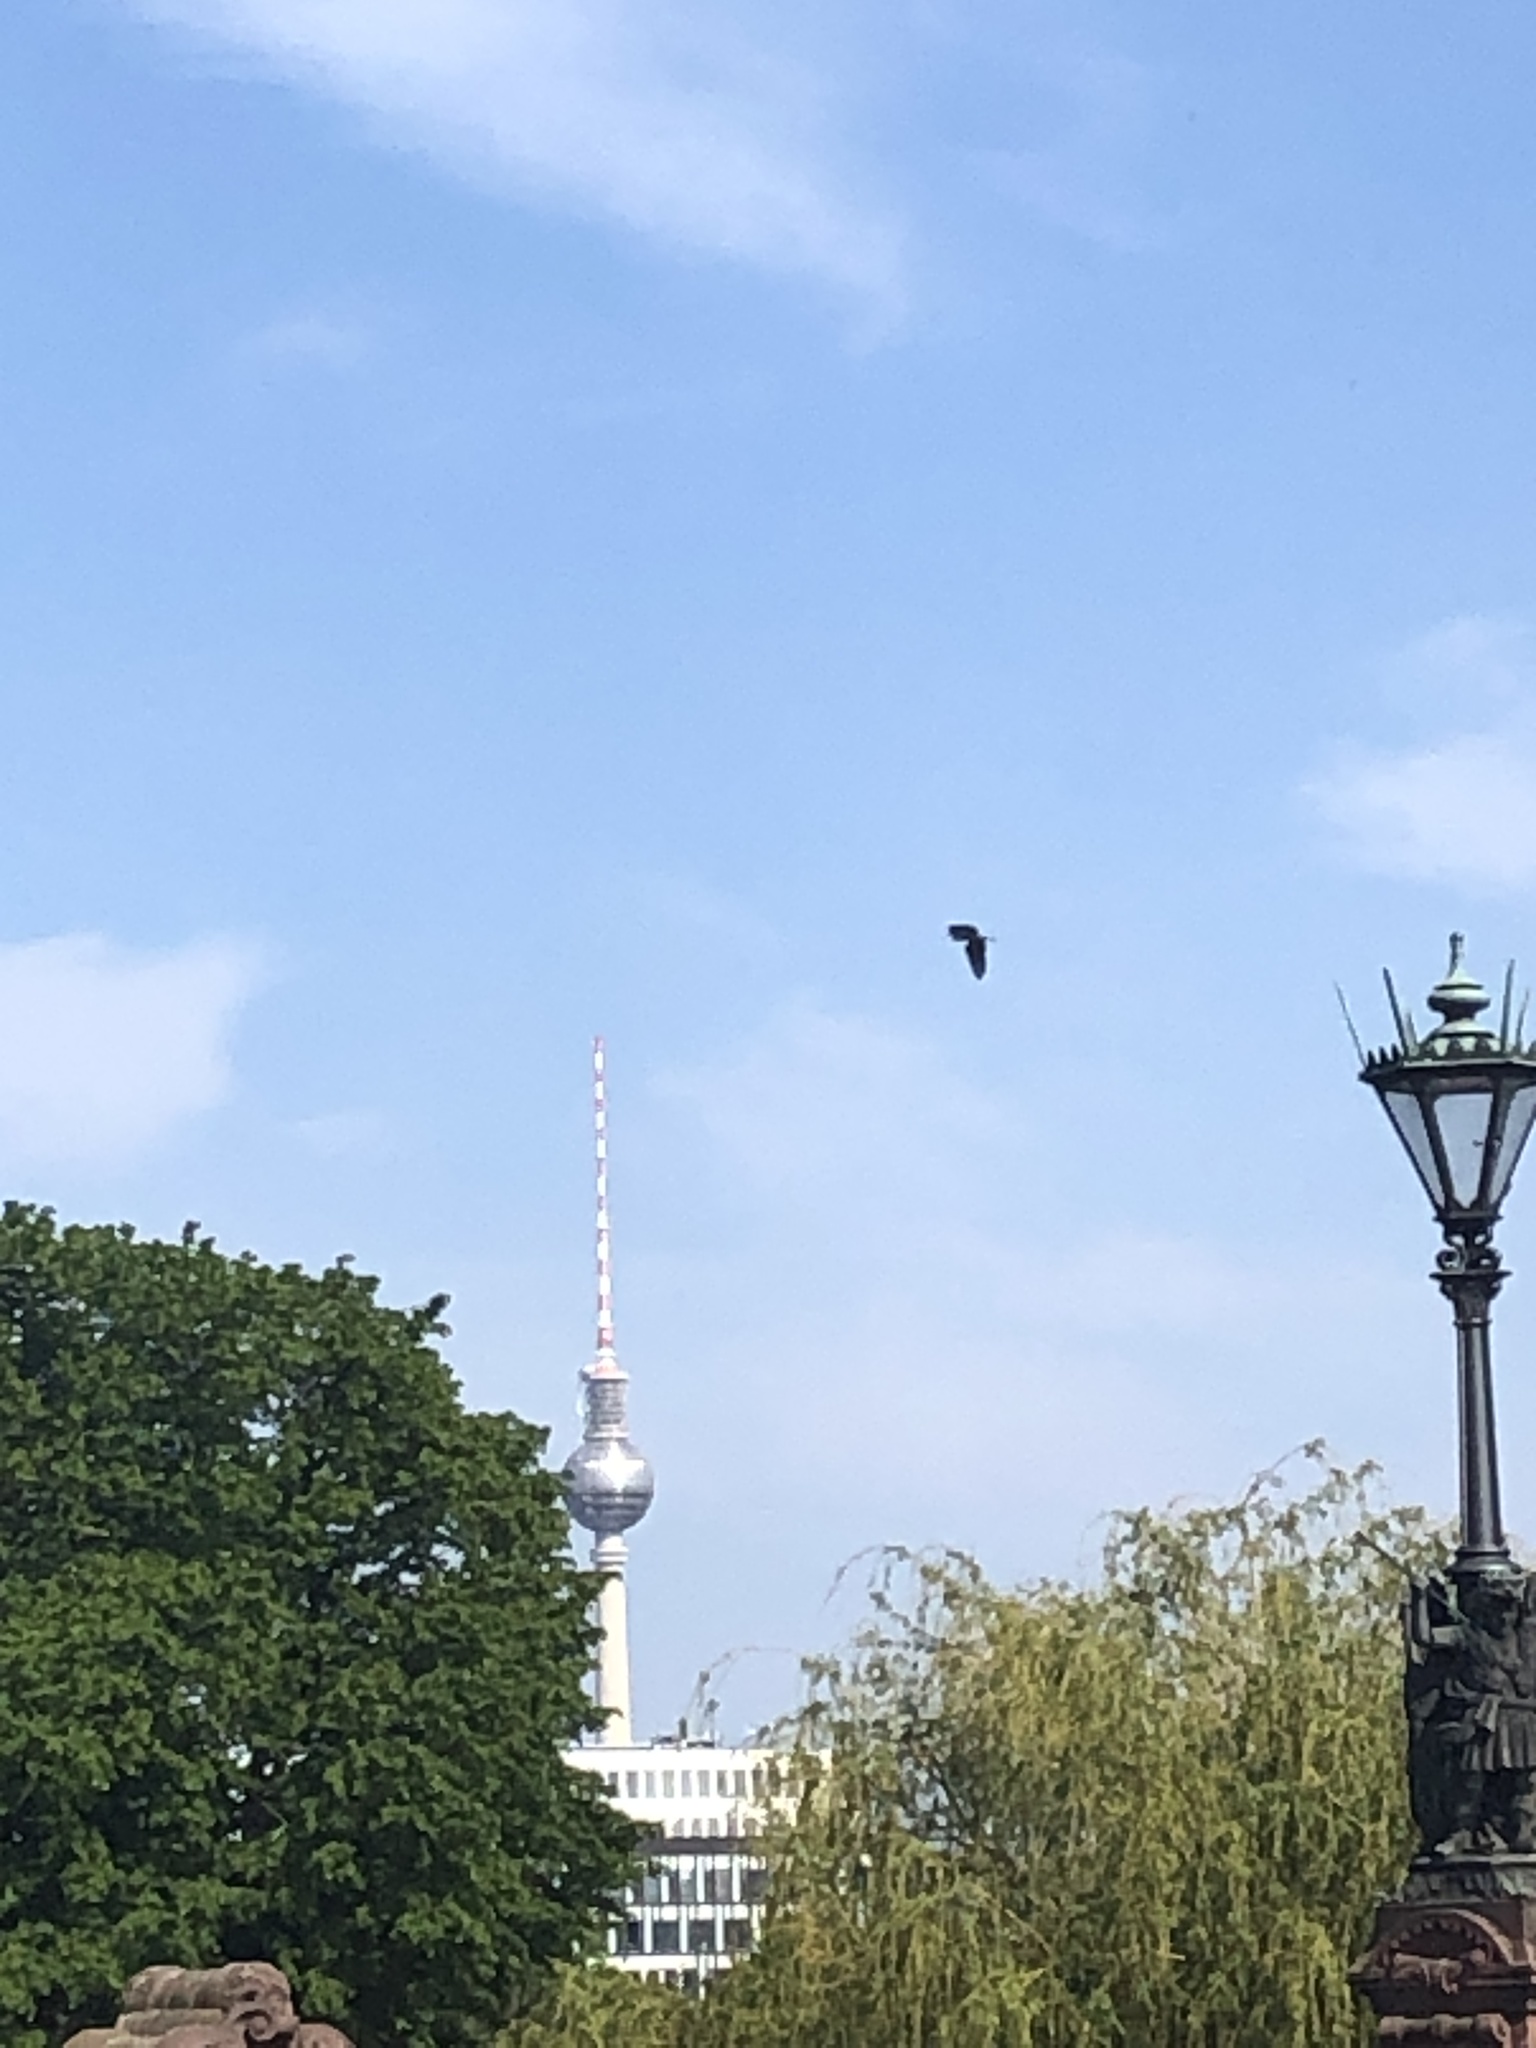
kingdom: Animalia
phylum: Chordata
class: Aves
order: Pelecaniformes
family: Ardeidae
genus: Ardea
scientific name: Ardea cinerea
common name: Grey heron
